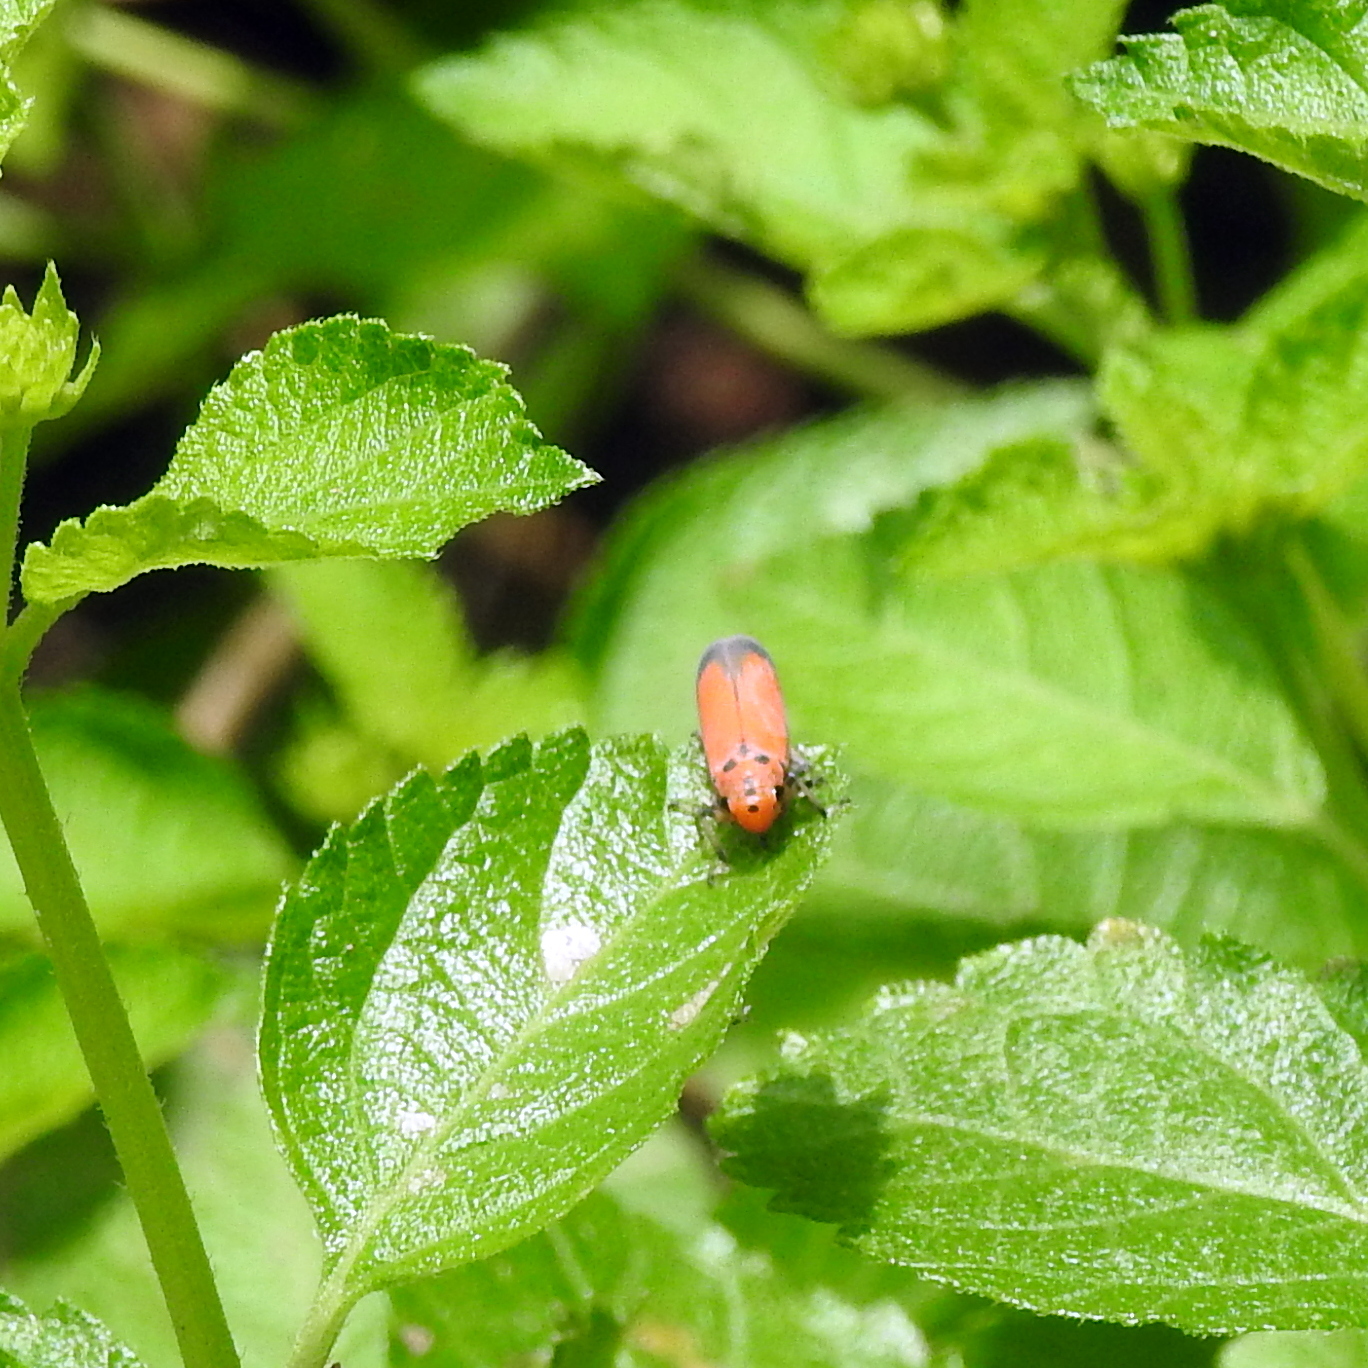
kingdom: Animalia
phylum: Arthropoda
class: Insecta
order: Hemiptera
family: Cicadellidae
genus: Bothrogonia
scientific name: Bothrogonia addita
